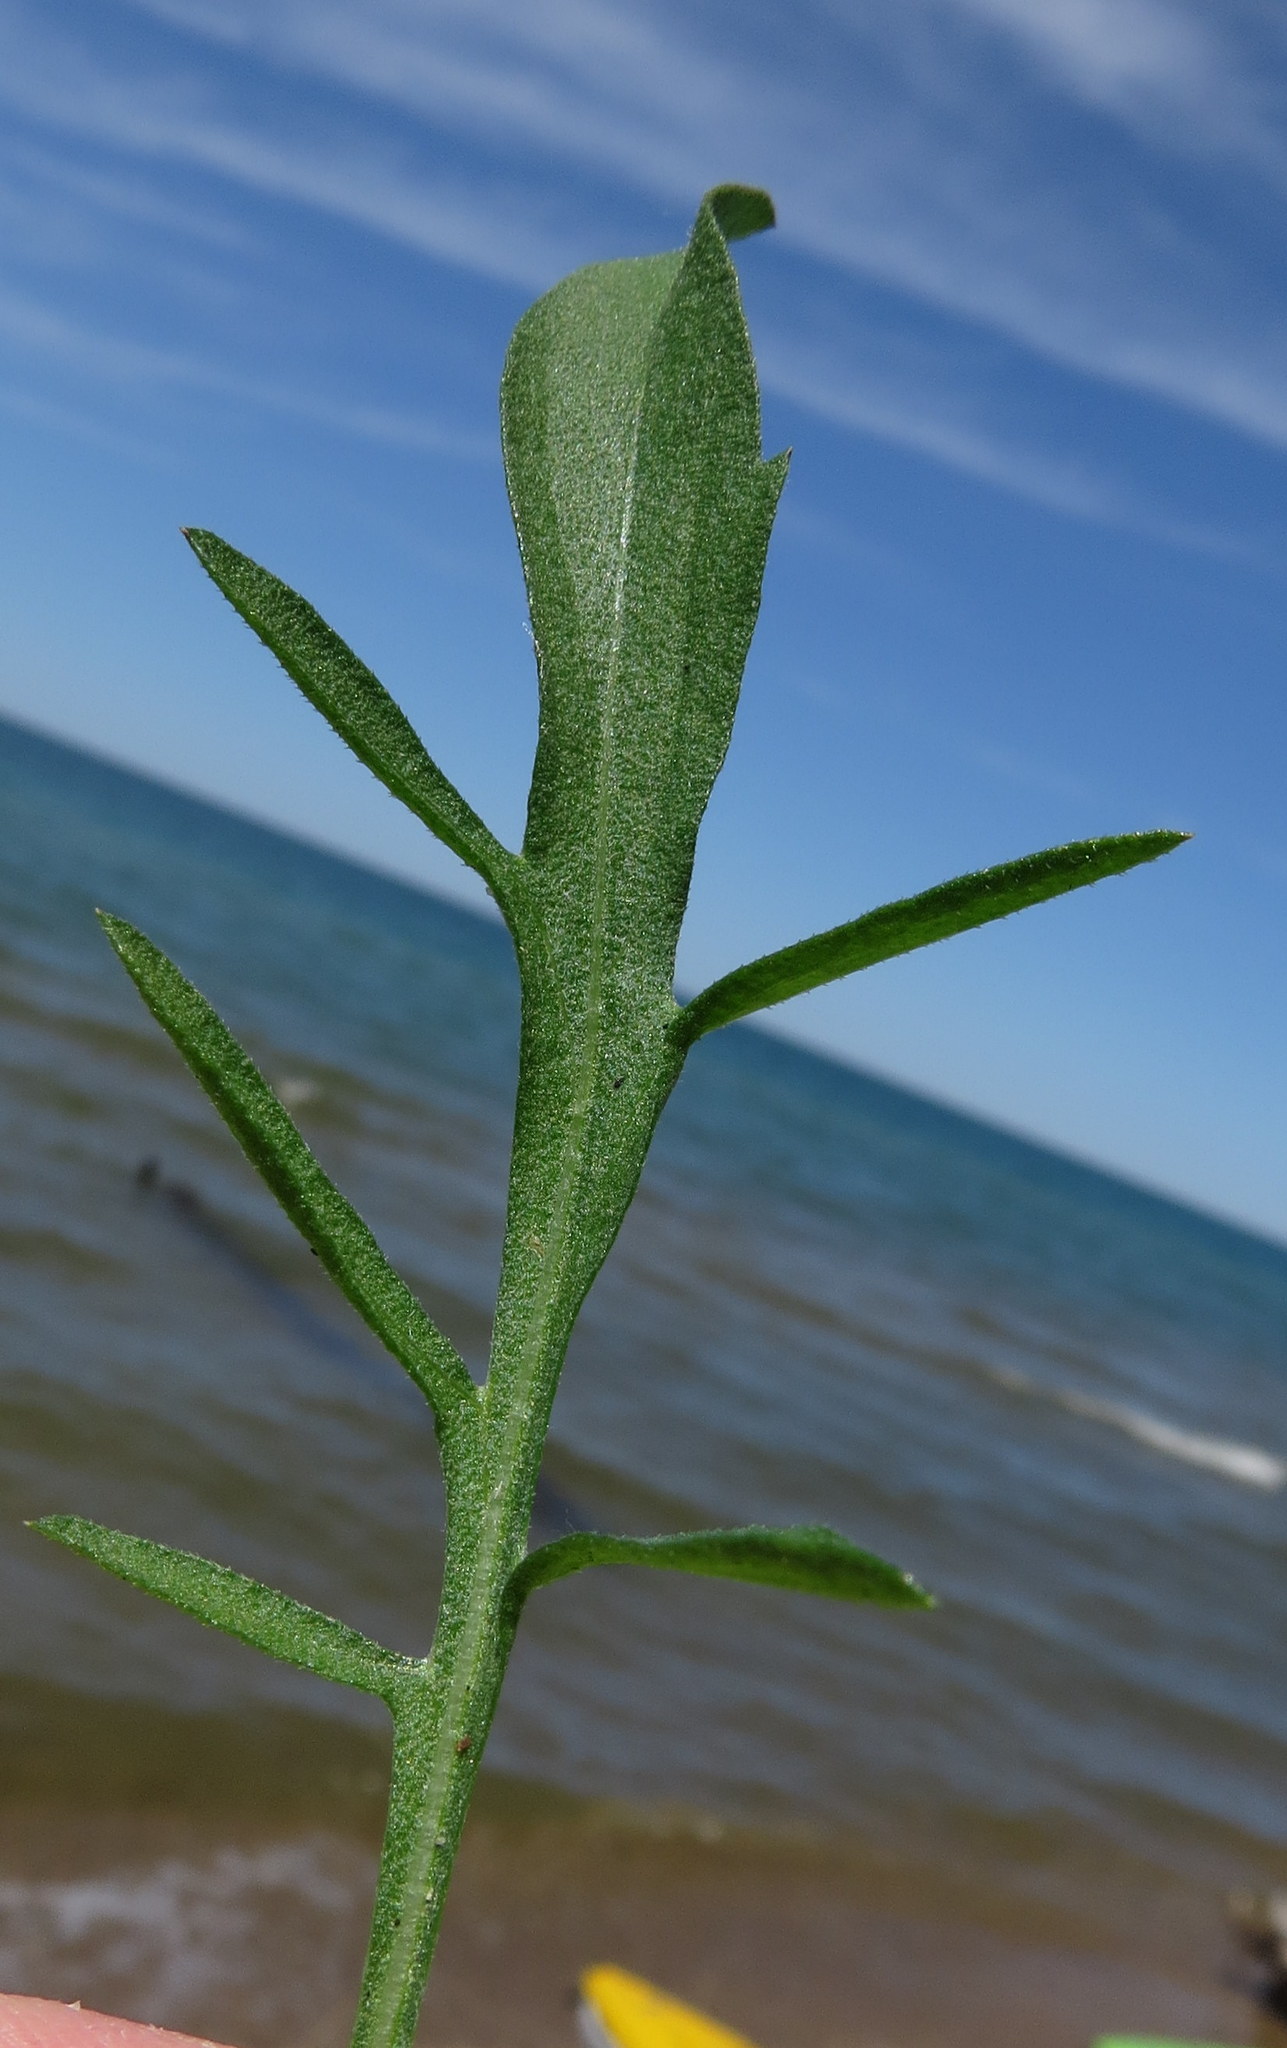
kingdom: Plantae
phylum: Tracheophyta
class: Magnoliopsida
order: Asterales
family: Asteraceae
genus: Centaurea
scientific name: Centaurea stoebe
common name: Spotted knapweed
